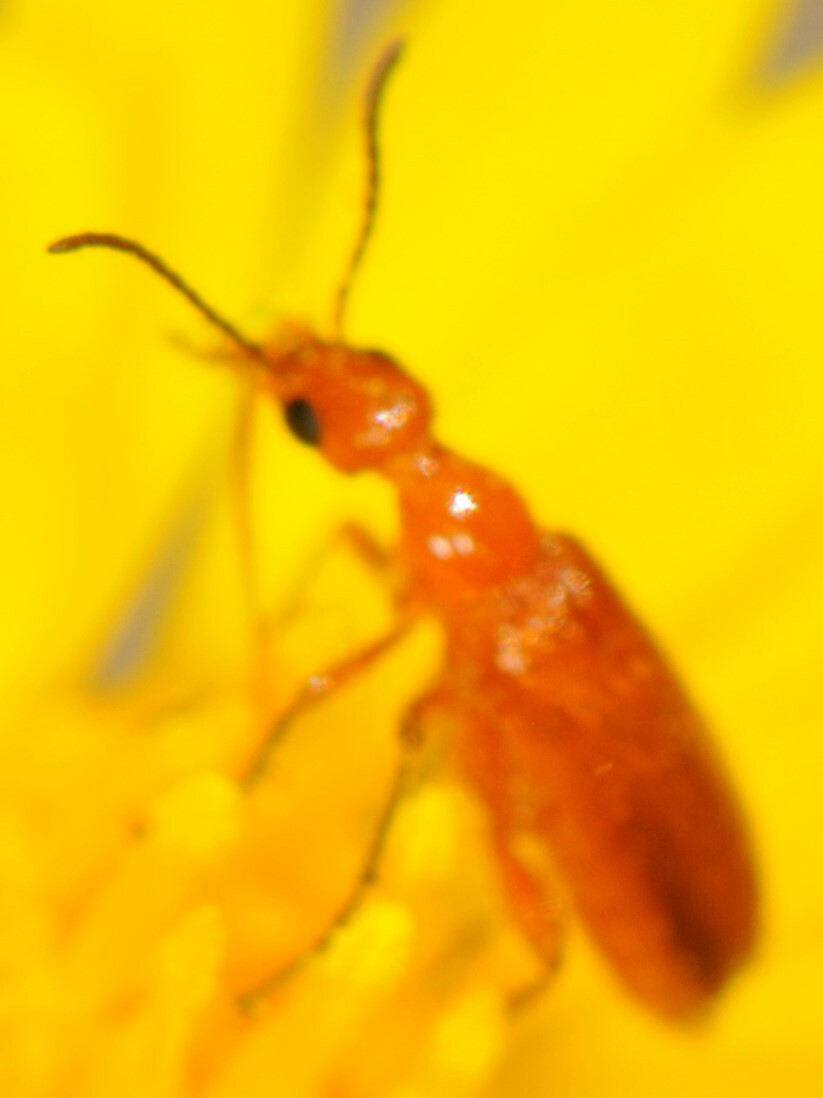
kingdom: Animalia
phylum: Arthropoda
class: Insecta
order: Coleoptera
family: Meloidae
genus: Gnathium
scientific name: Gnathium nitidum
